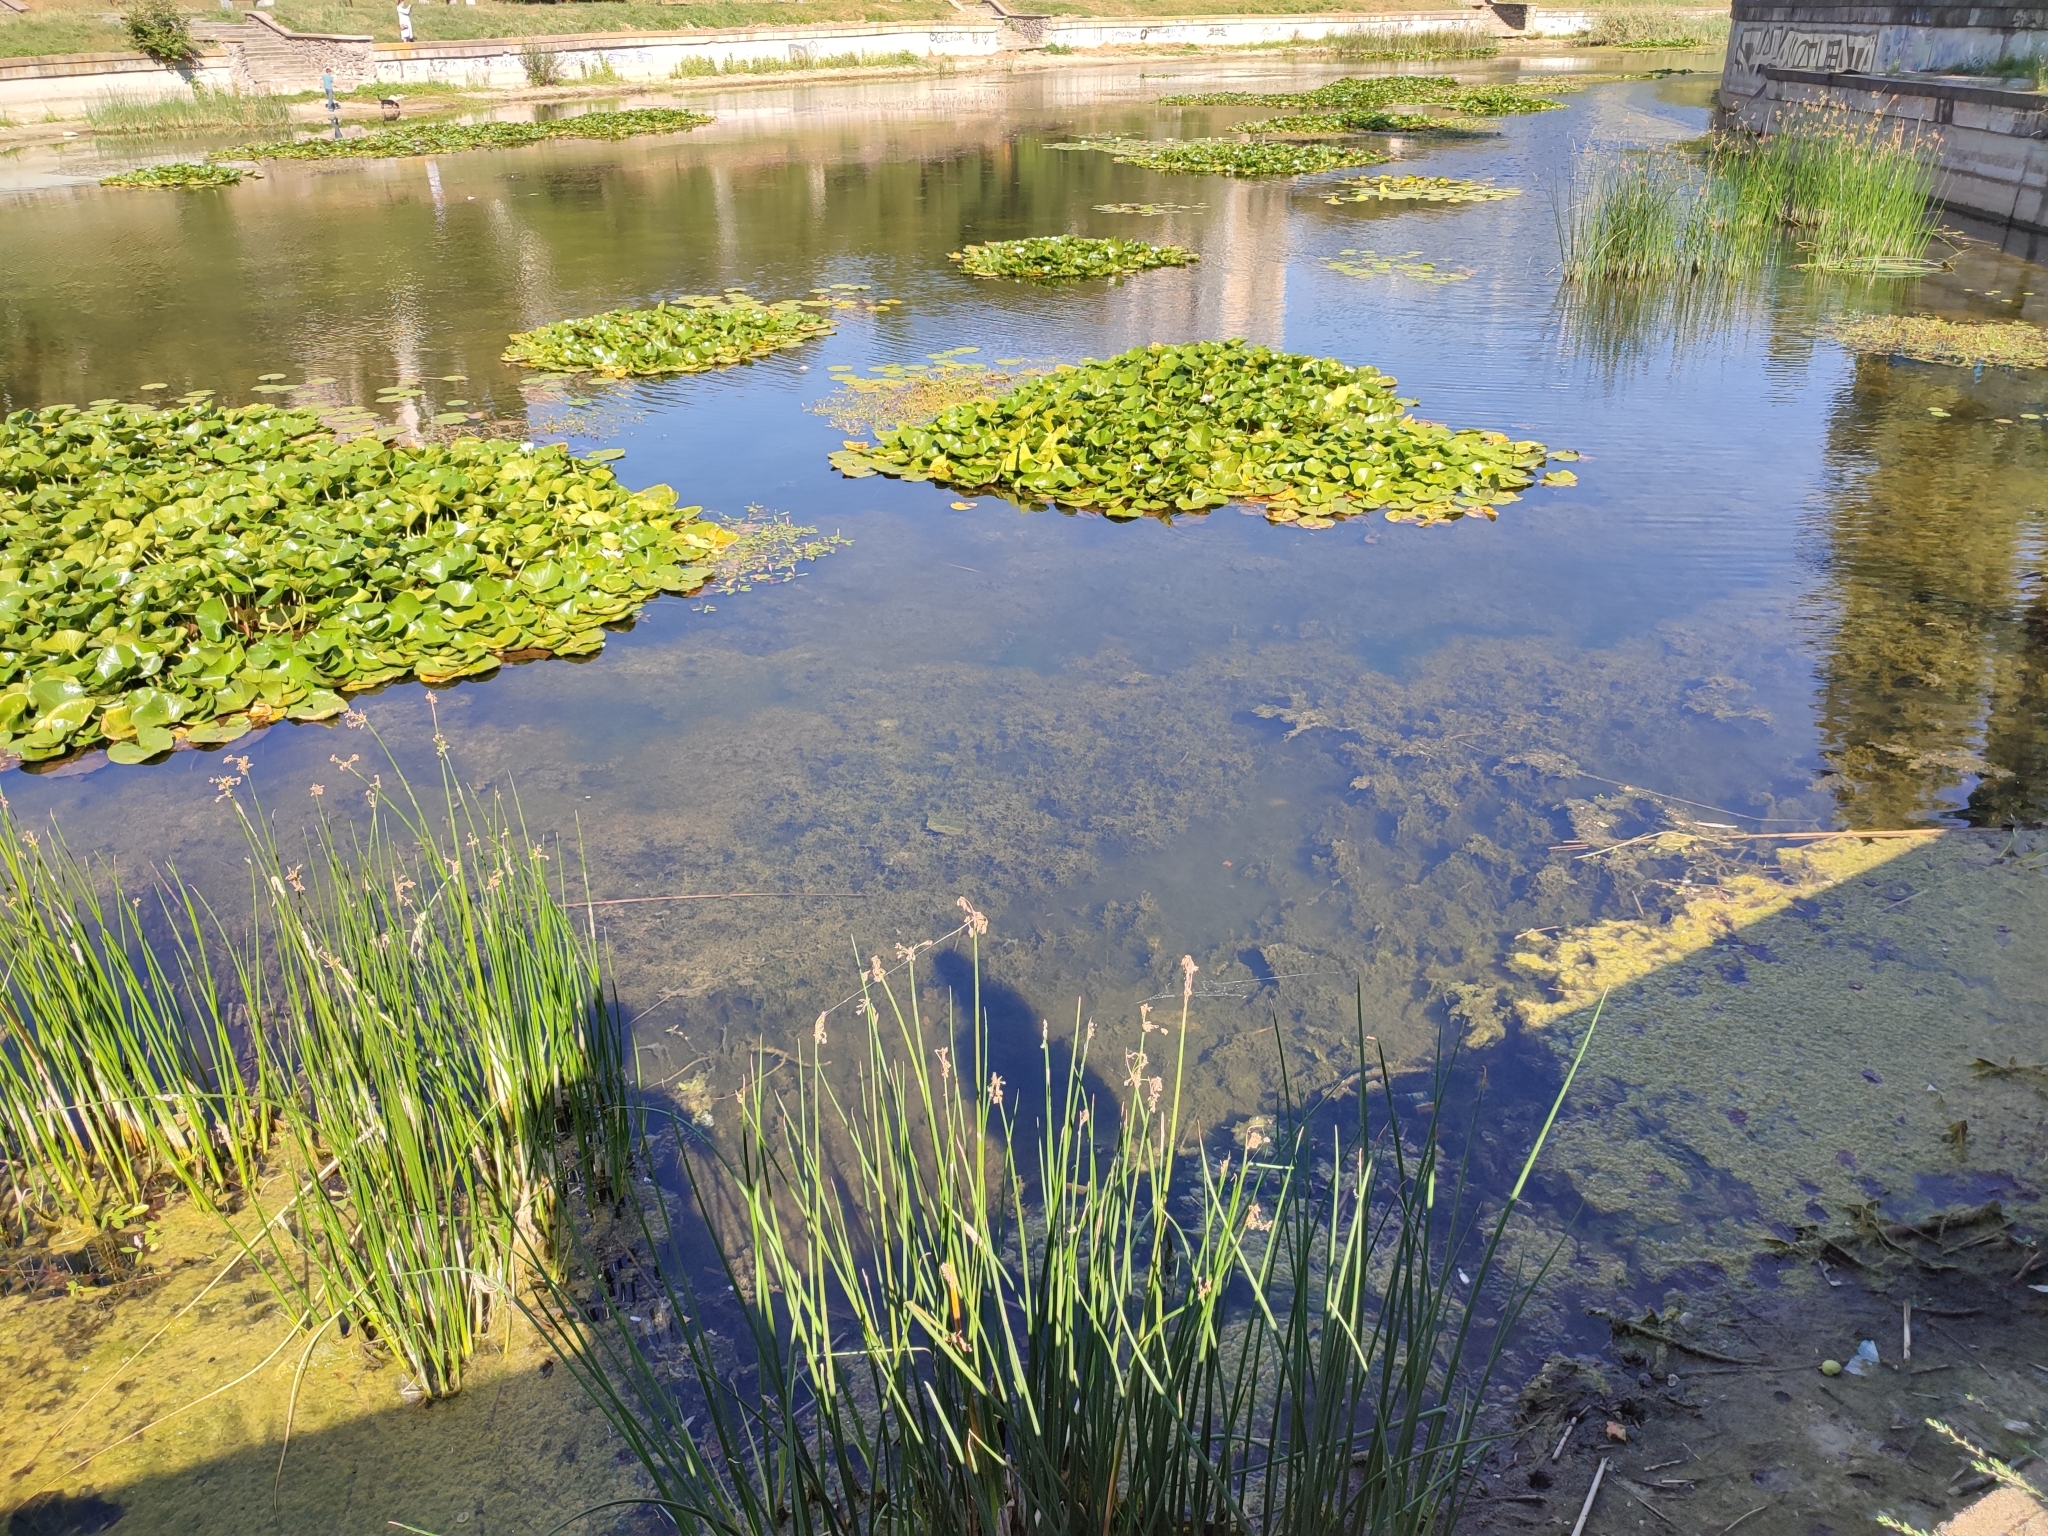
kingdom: Plantae
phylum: Tracheophyta
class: Liliopsida
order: Poales
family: Cyperaceae
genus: Schoenoplectus
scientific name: Schoenoplectus lacustris
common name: Common club-rush
